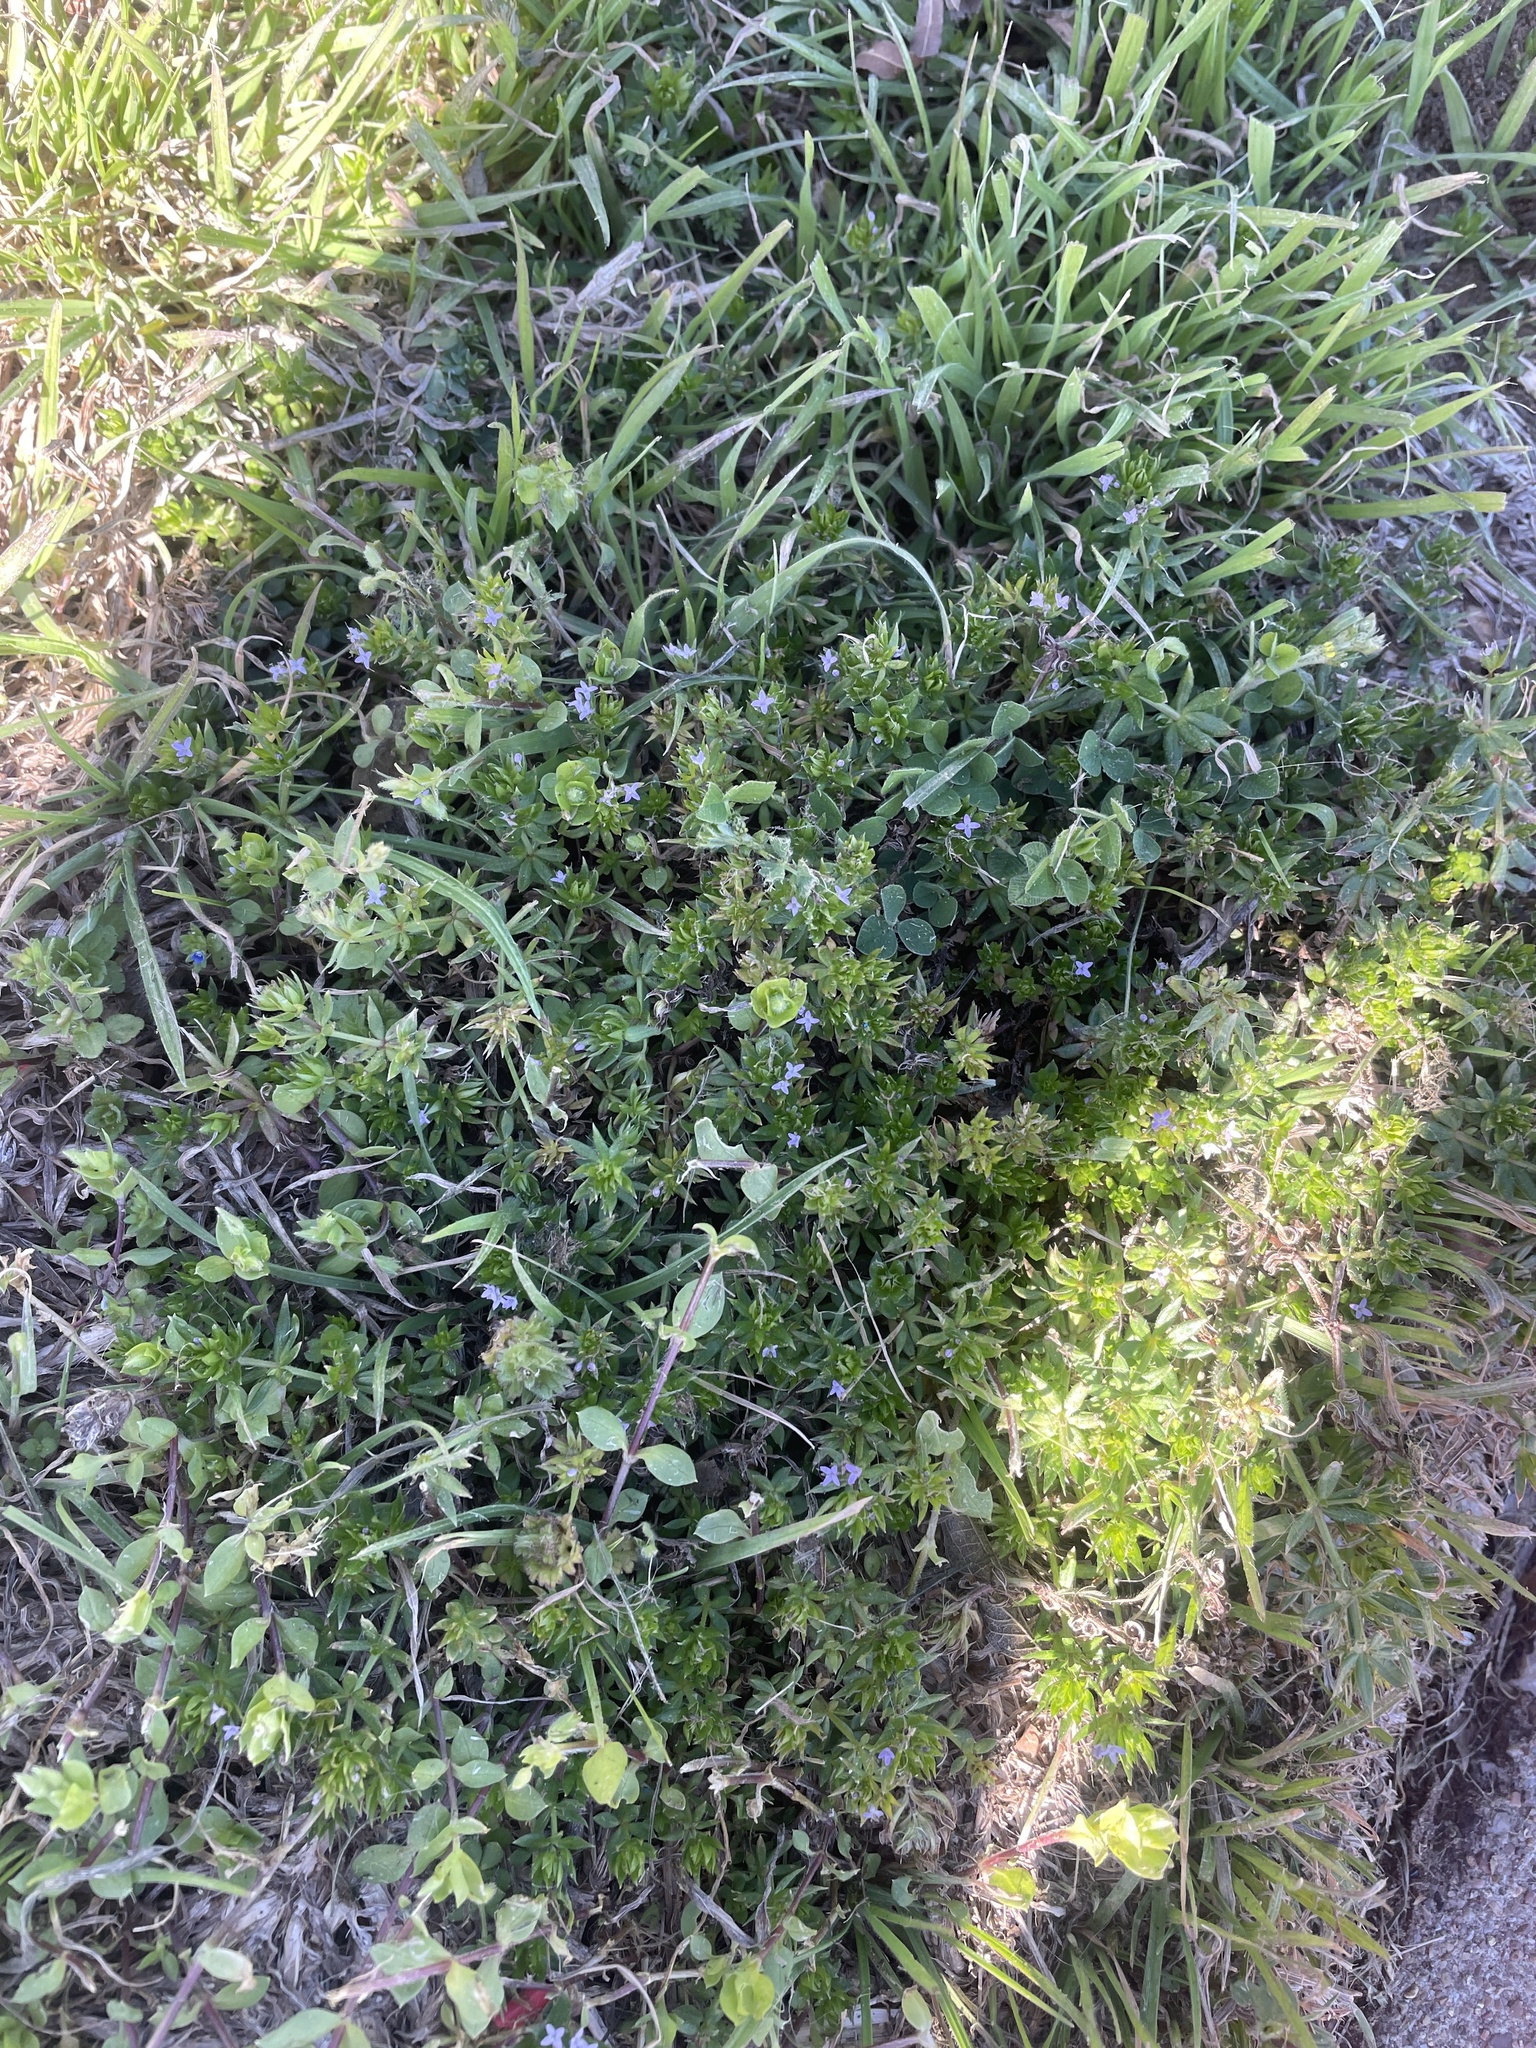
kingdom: Plantae
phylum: Tracheophyta
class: Magnoliopsida
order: Gentianales
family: Rubiaceae
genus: Sherardia
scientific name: Sherardia arvensis
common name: Field madder
